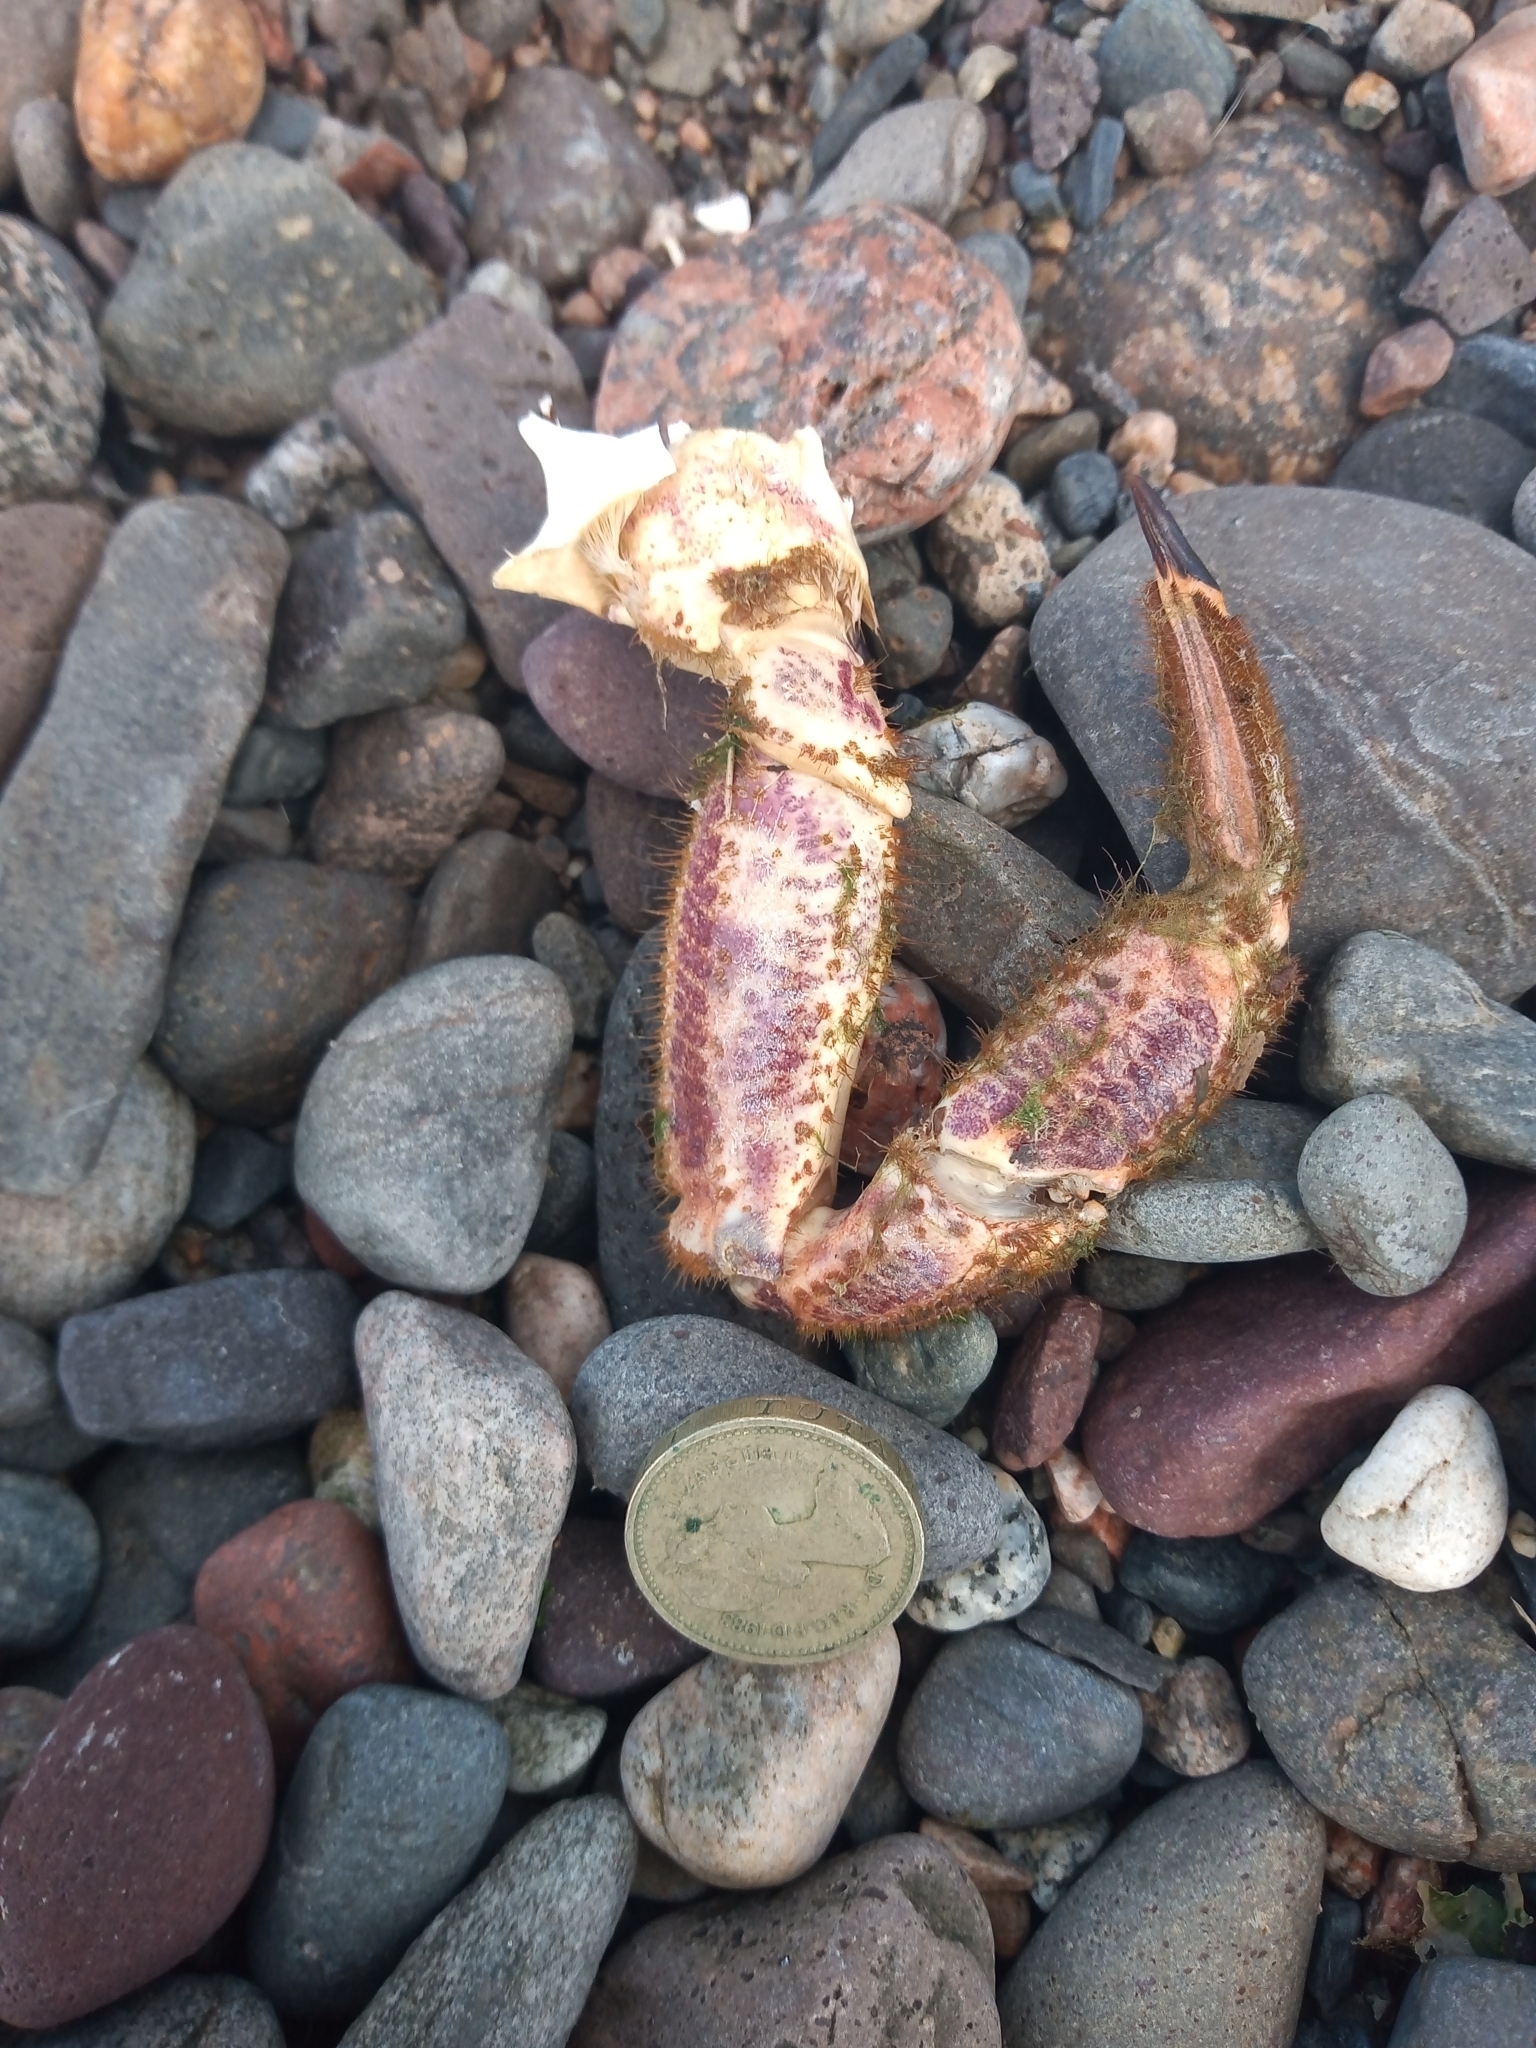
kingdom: Animalia
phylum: Arthropoda
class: Malacostraca
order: Decapoda
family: Cancridae
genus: Cancer
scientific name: Cancer pagurus
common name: Edible crab
